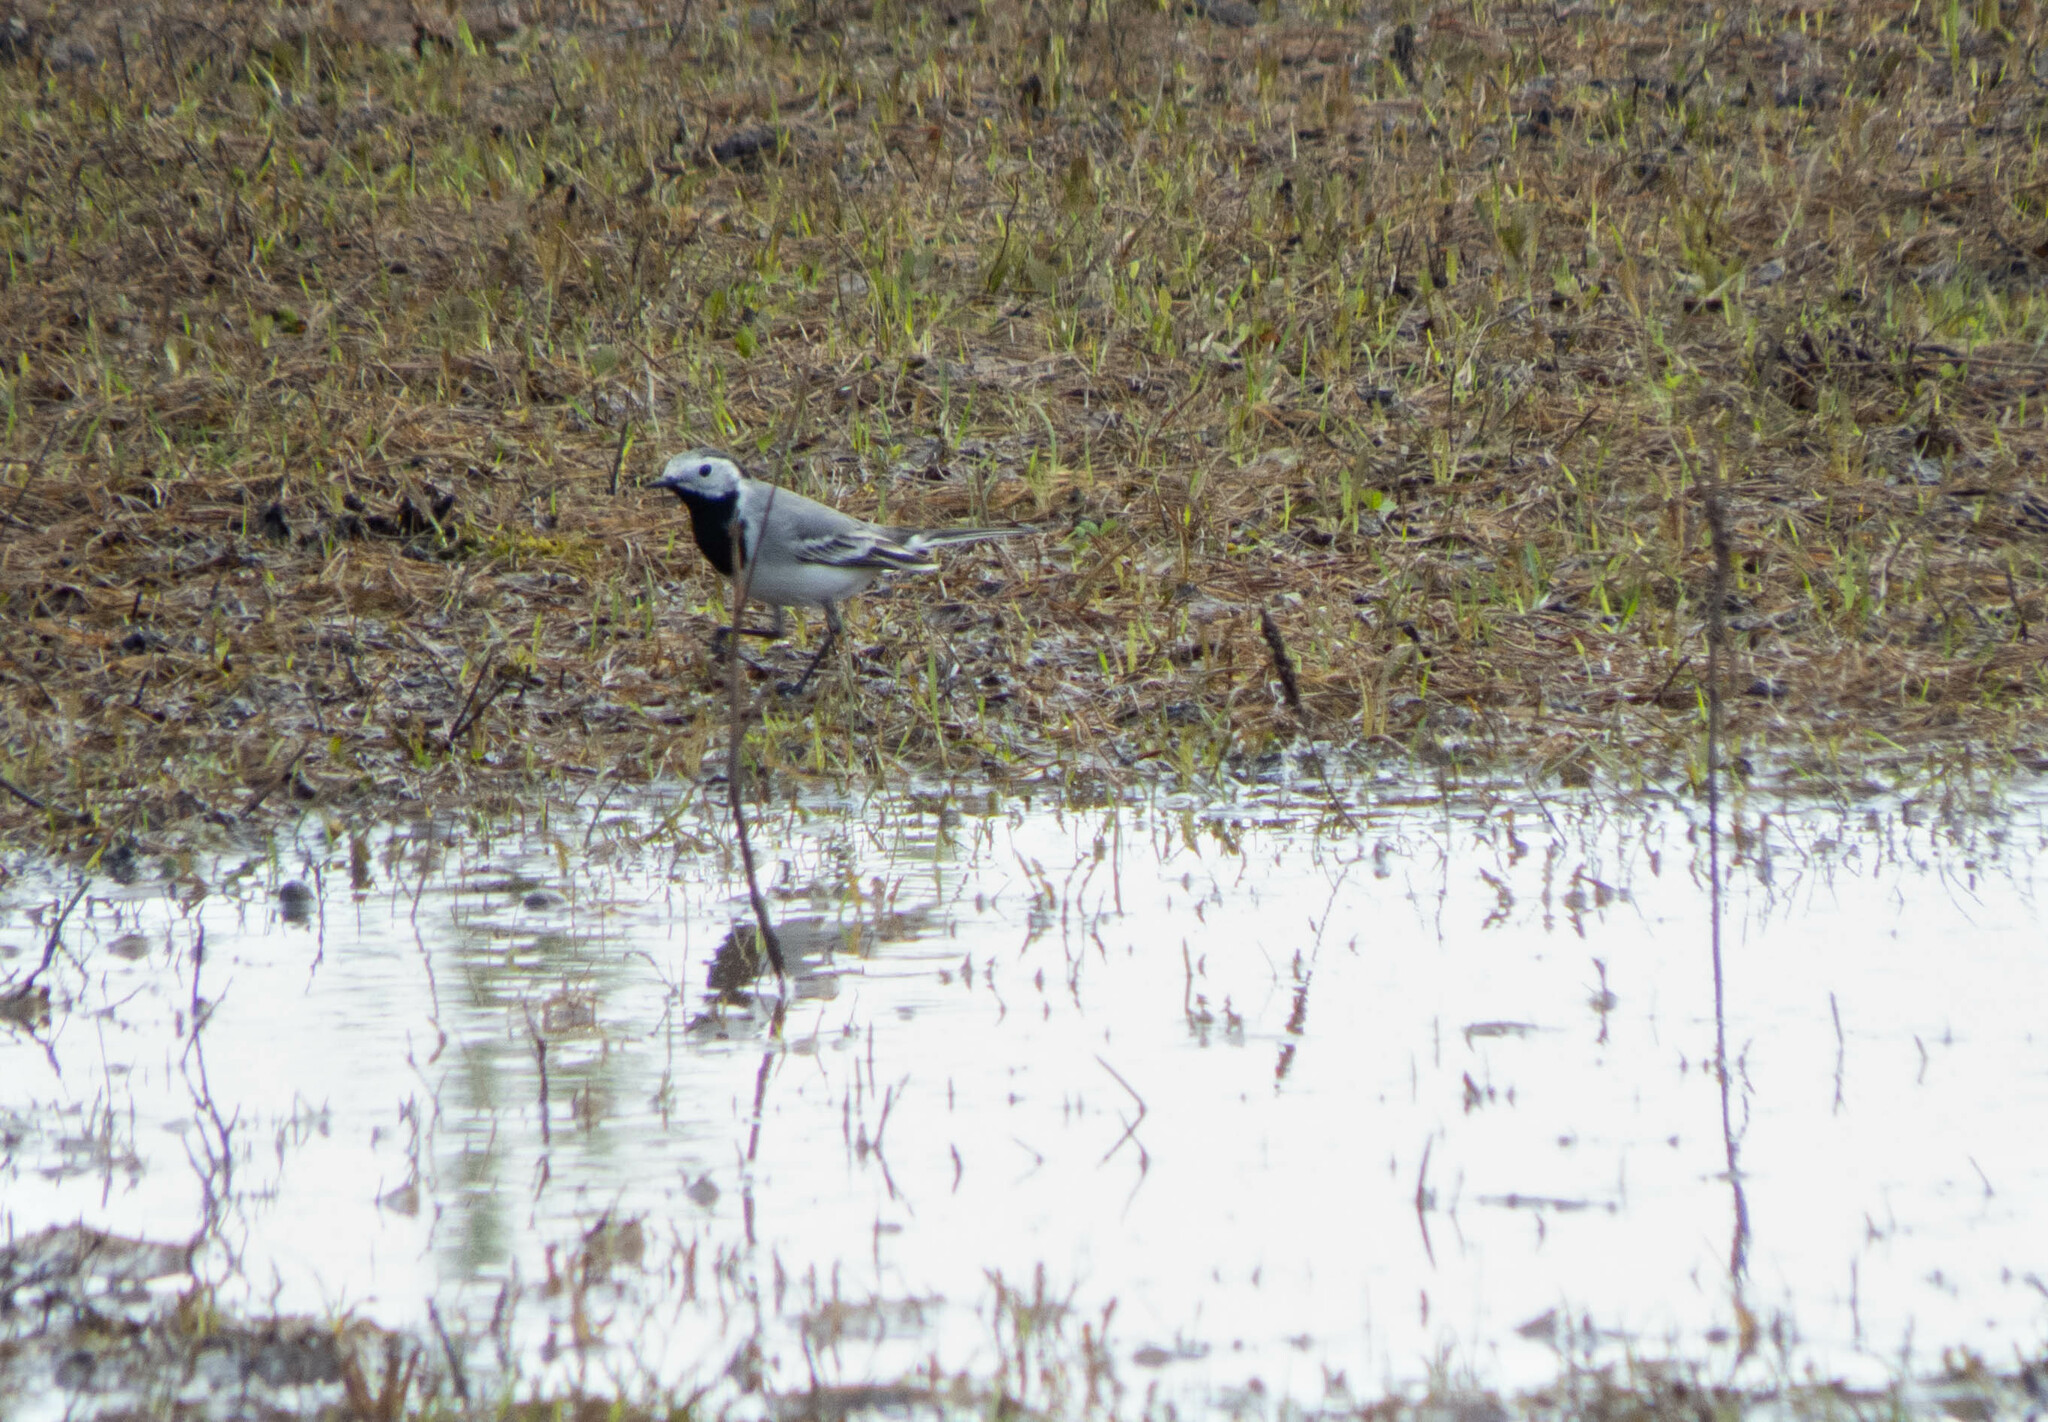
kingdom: Animalia
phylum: Chordata
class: Aves
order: Passeriformes
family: Motacillidae
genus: Motacilla
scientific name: Motacilla alba
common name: White wagtail
